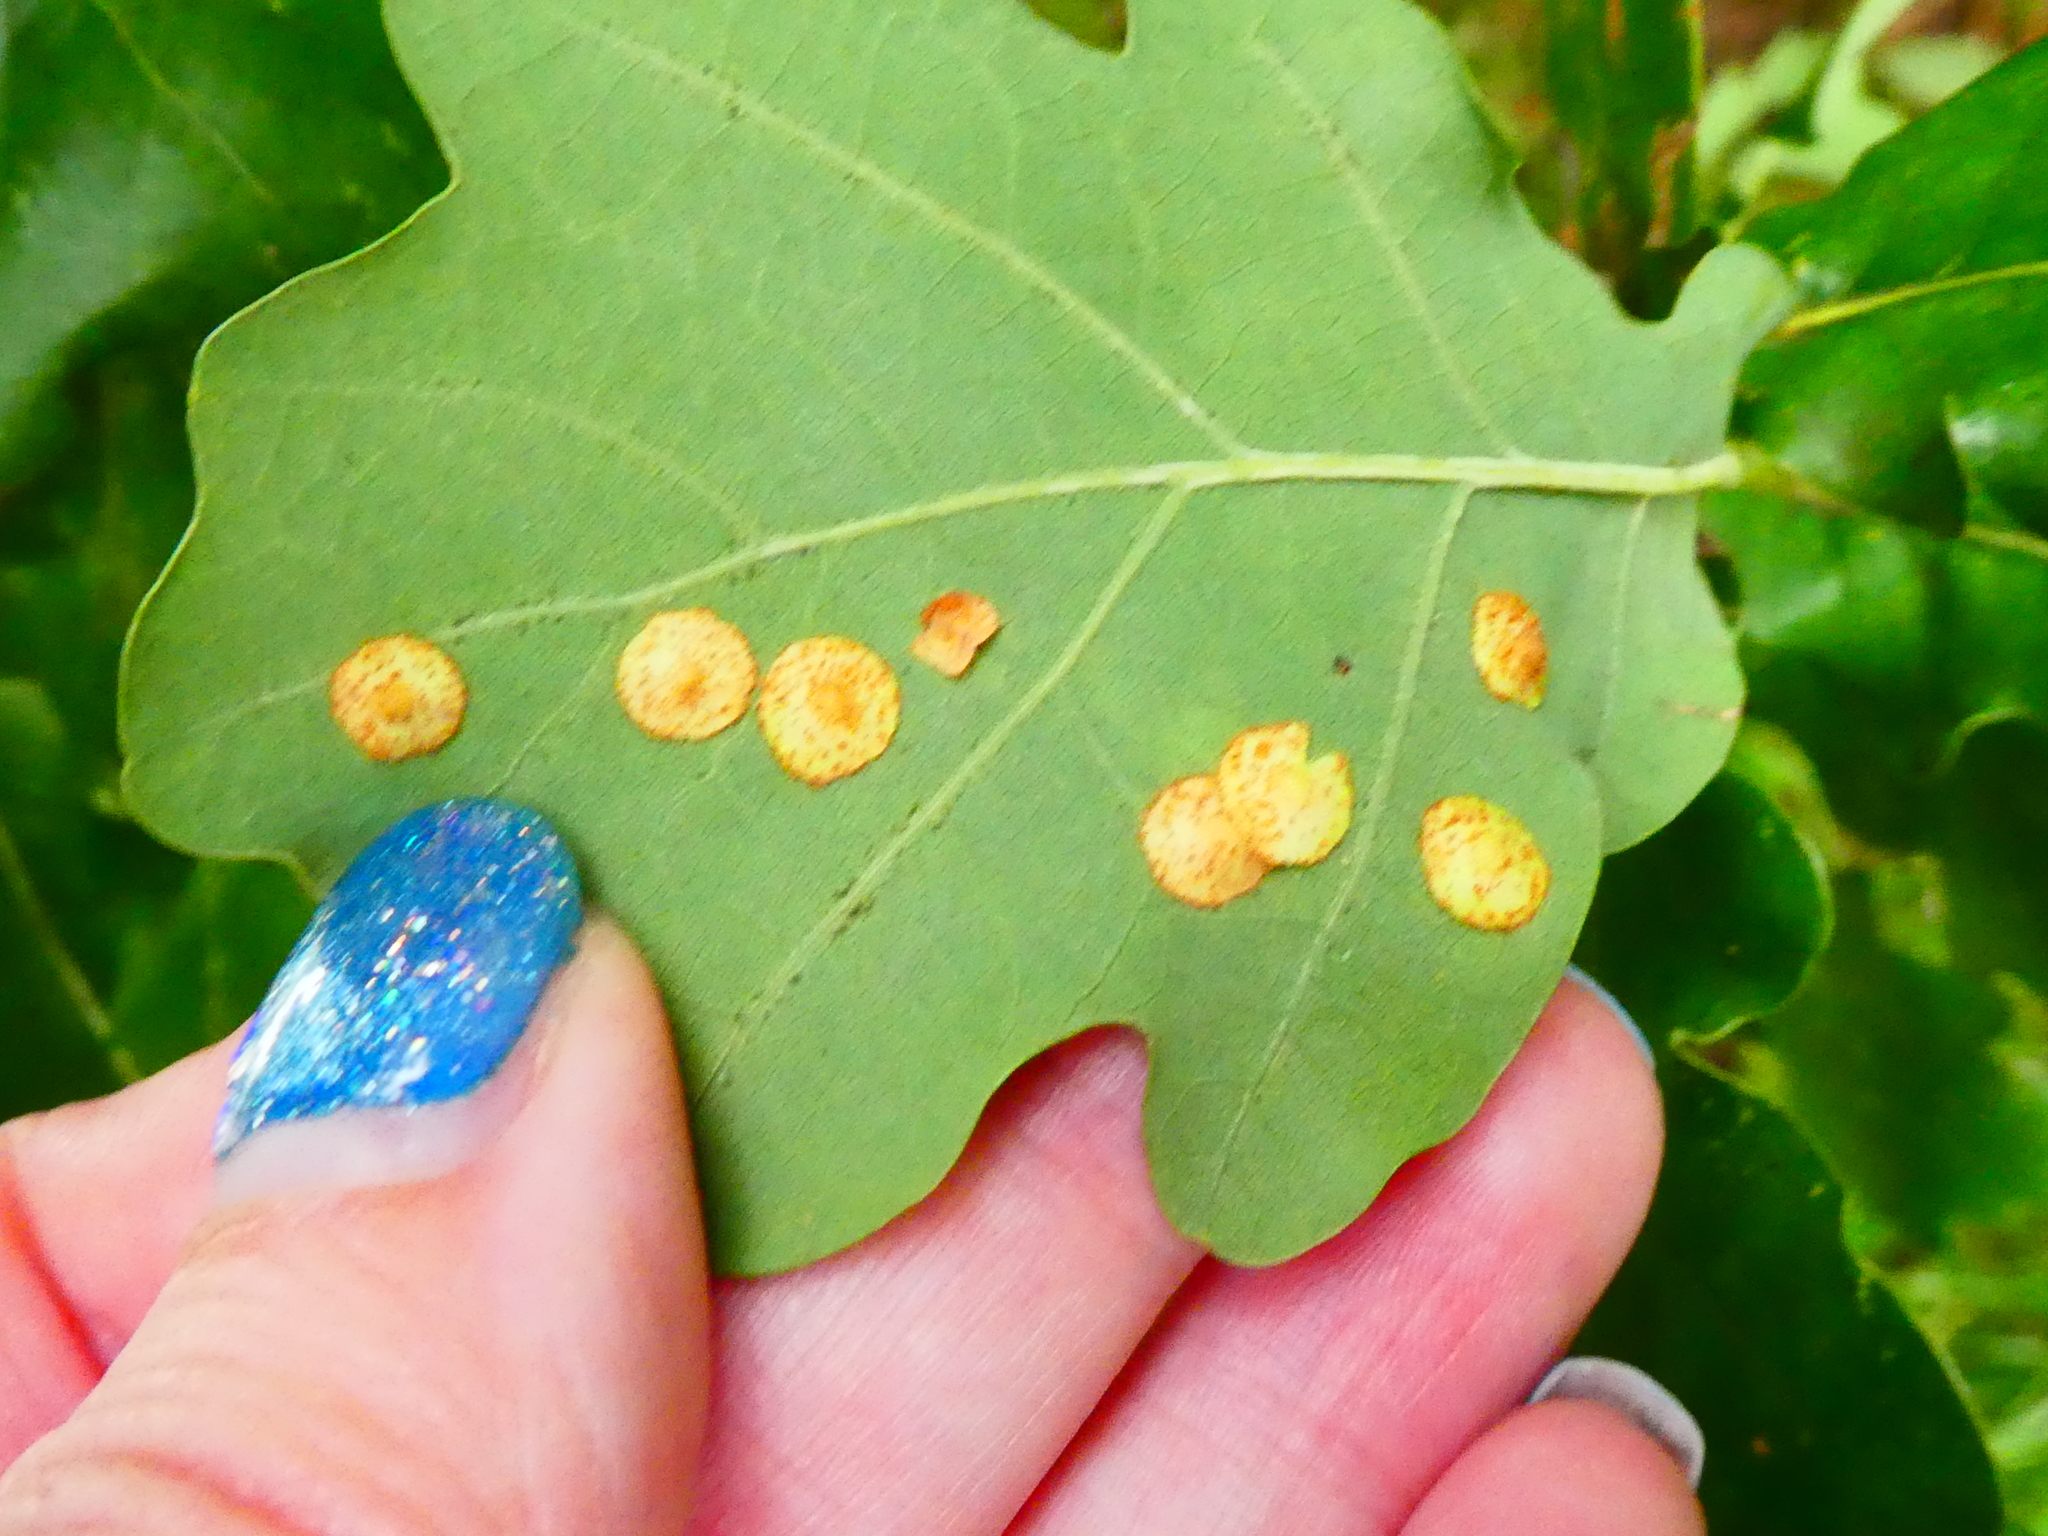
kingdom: Animalia
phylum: Arthropoda
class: Insecta
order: Hymenoptera
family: Cynipidae
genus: Neuroterus
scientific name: Neuroterus quercusbaccarum
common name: Common spangle gall
